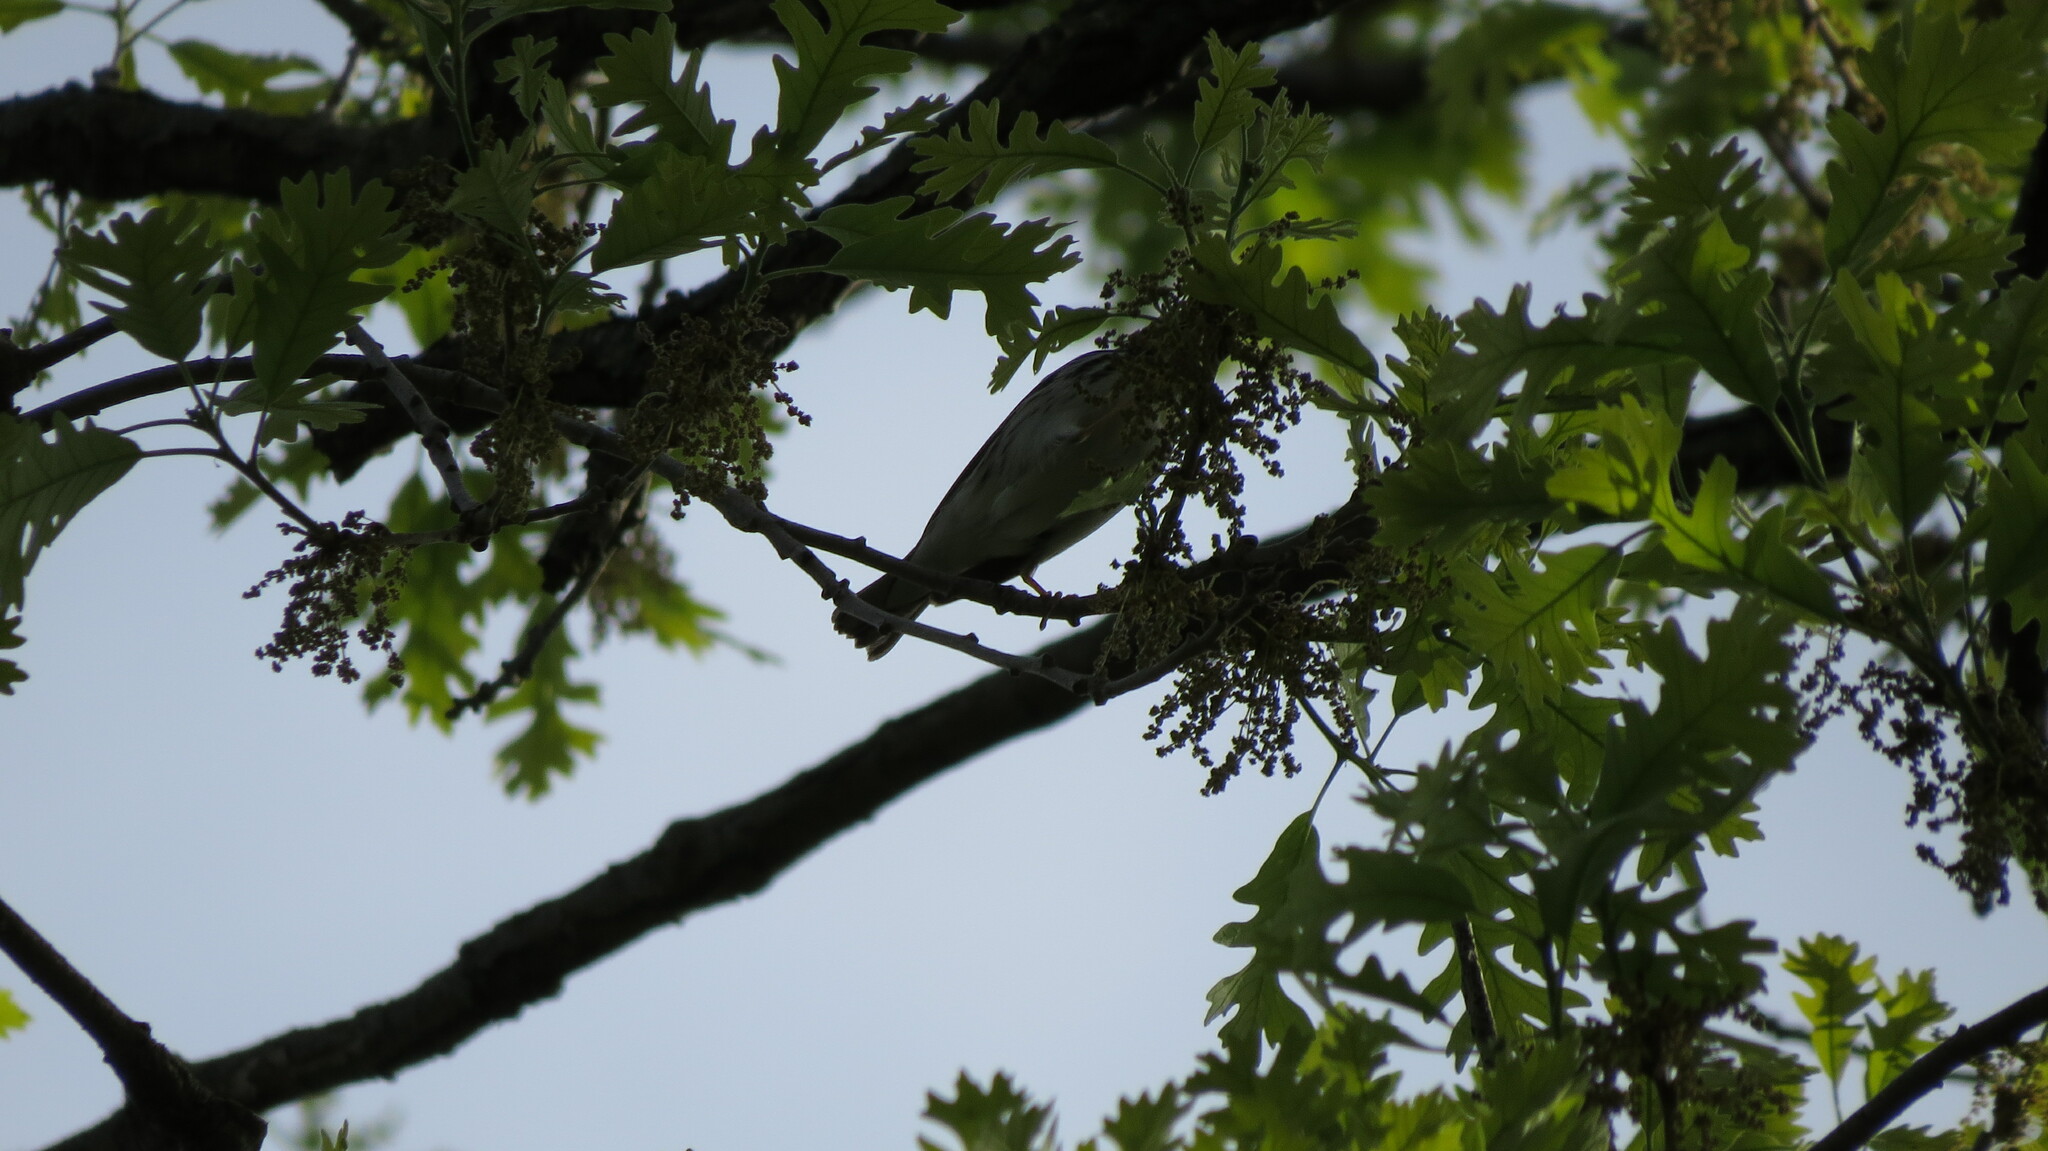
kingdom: Animalia
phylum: Chordata
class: Aves
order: Passeriformes
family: Parulidae
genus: Setophaga
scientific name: Setophaga striata
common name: Blackpoll warbler
